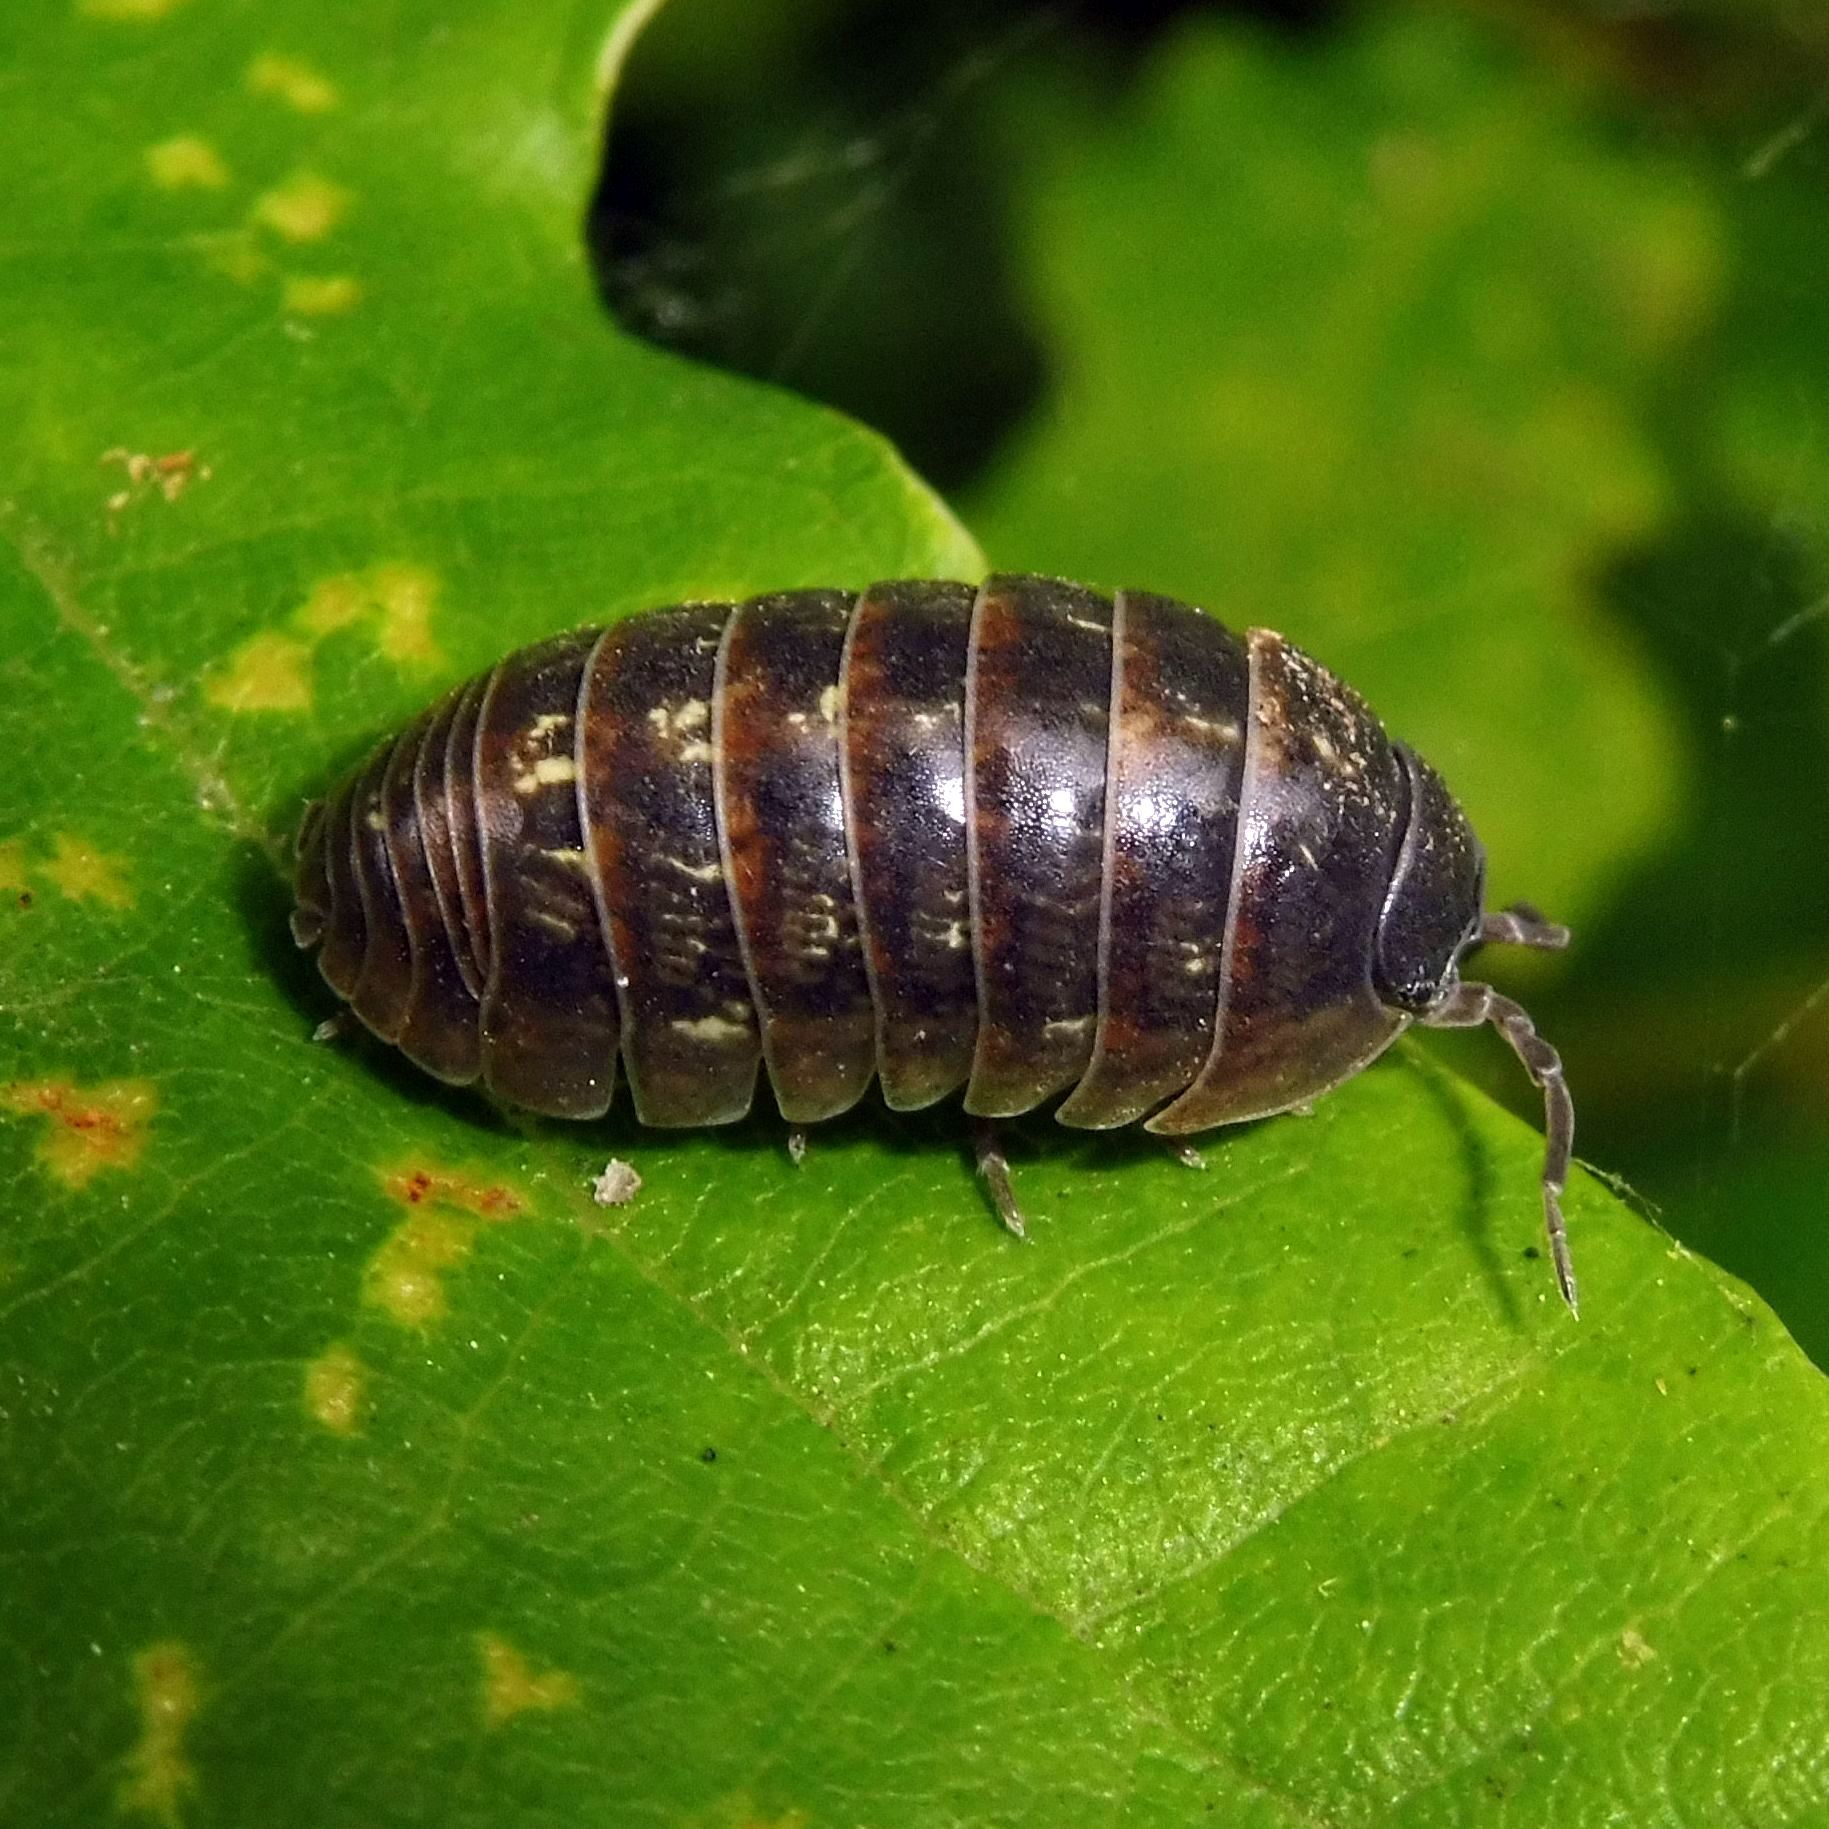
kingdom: Animalia
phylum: Arthropoda
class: Malacostraca
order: Isopoda
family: Armadillidiidae
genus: Armadillidium
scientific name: Armadillidium vulgare
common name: Common pill woodlouse
